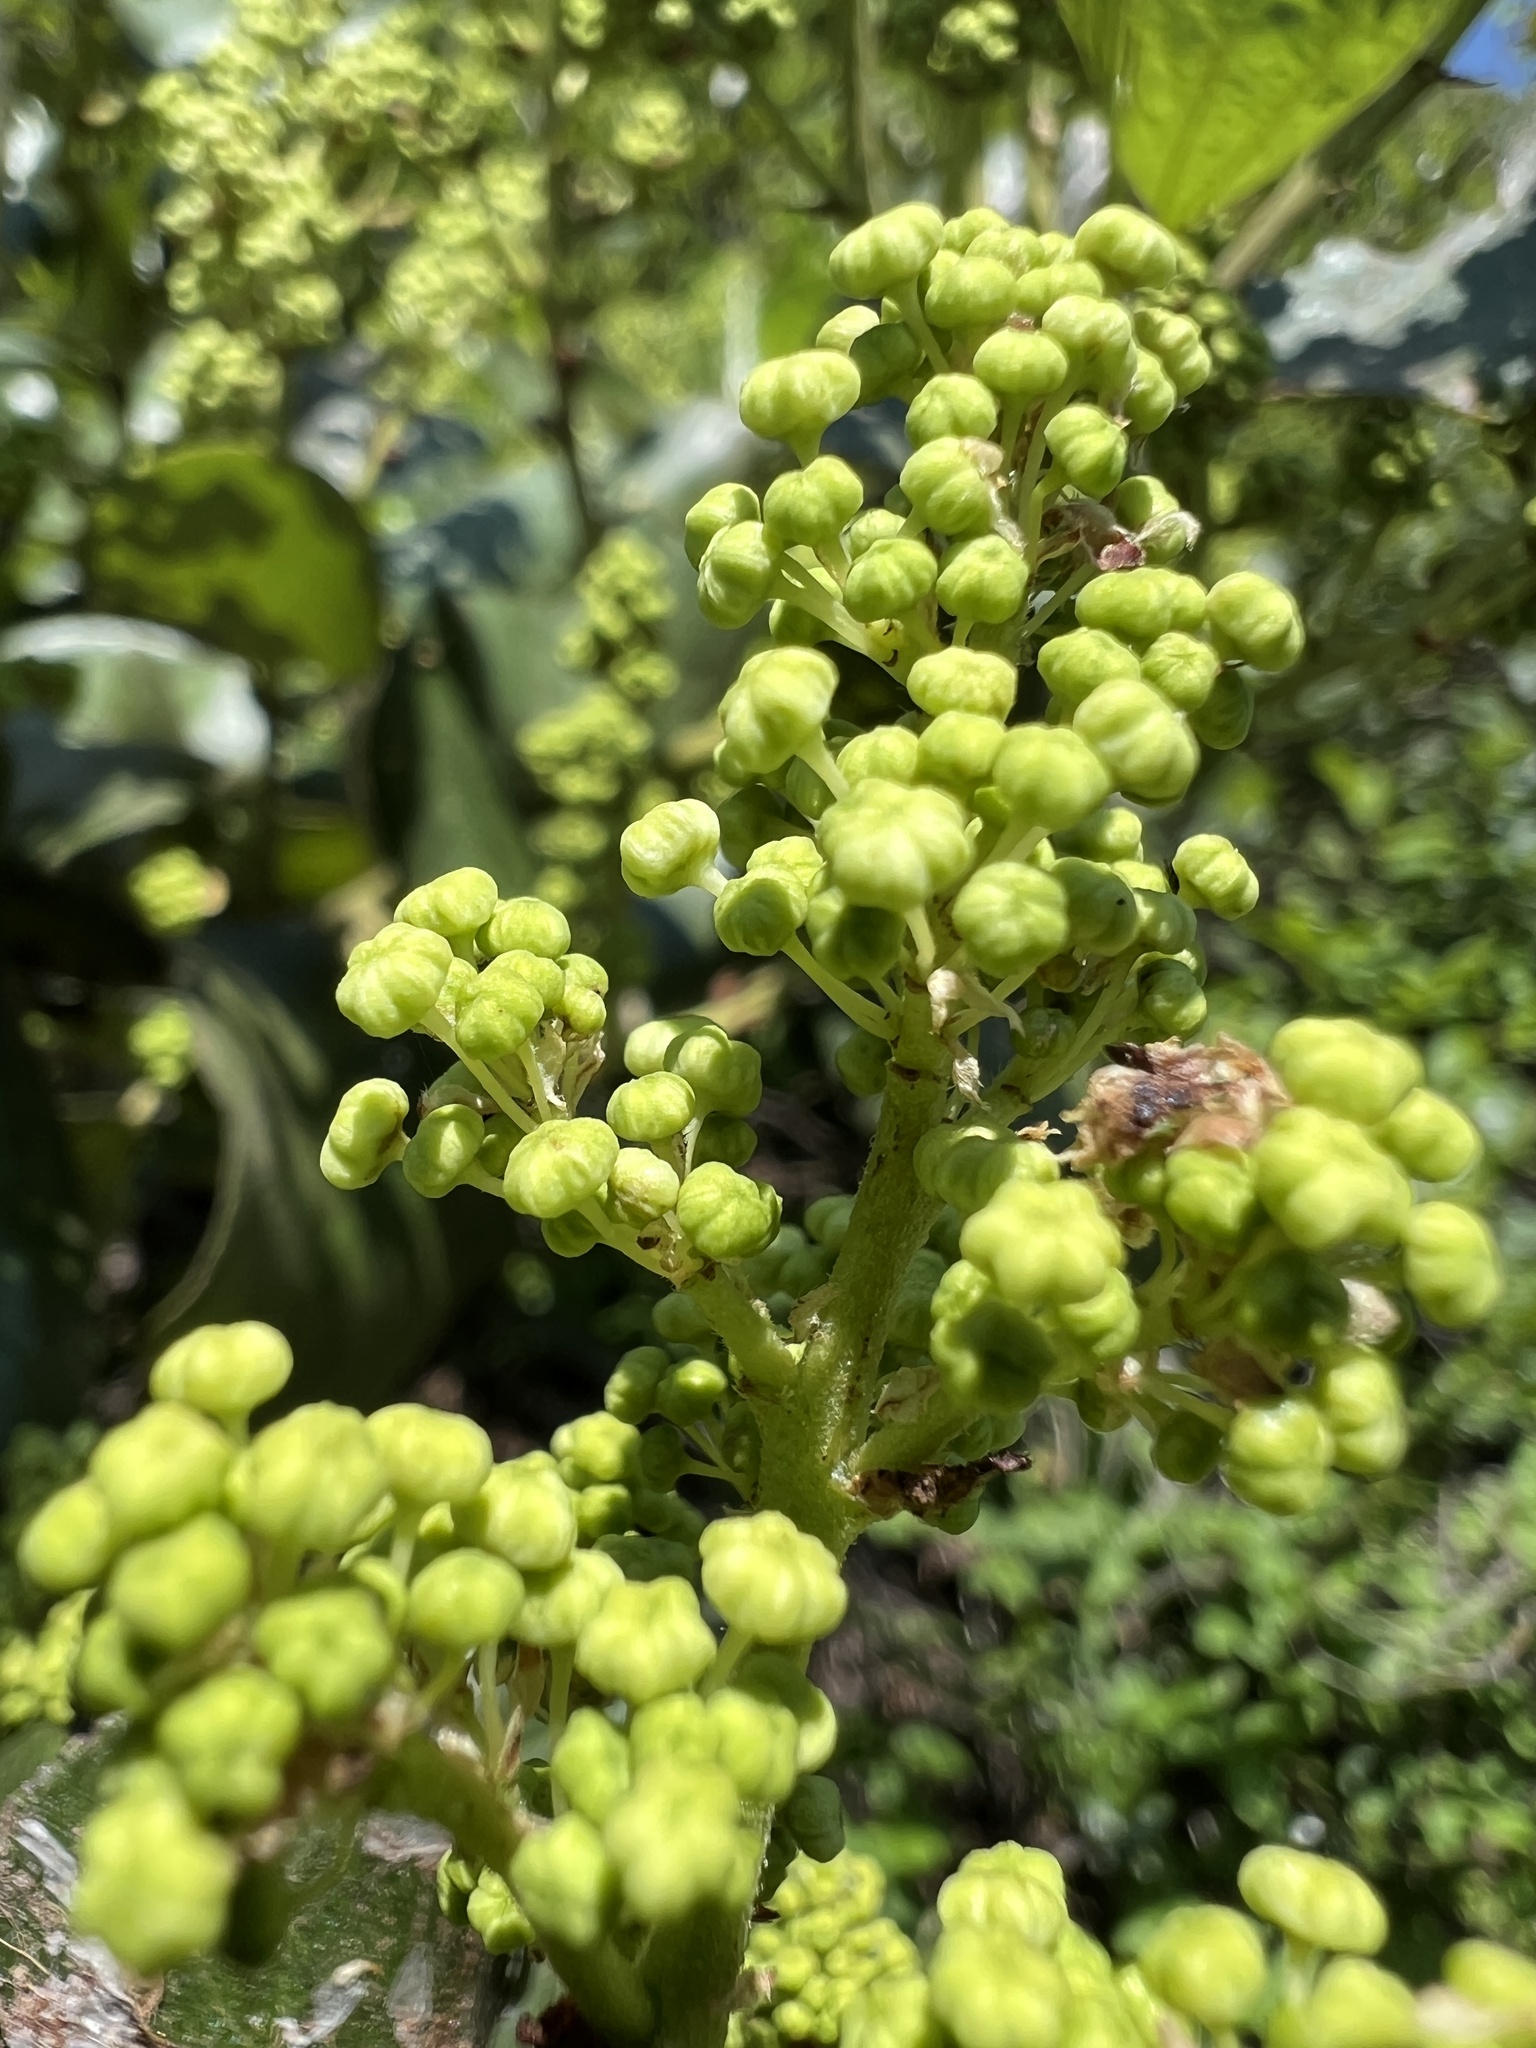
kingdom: Plantae
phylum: Tracheophyta
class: Magnoliopsida
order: Rosales
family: Rhamnaceae
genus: Ceanothus
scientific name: Ceanothus velutinus
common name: Snowbrush
